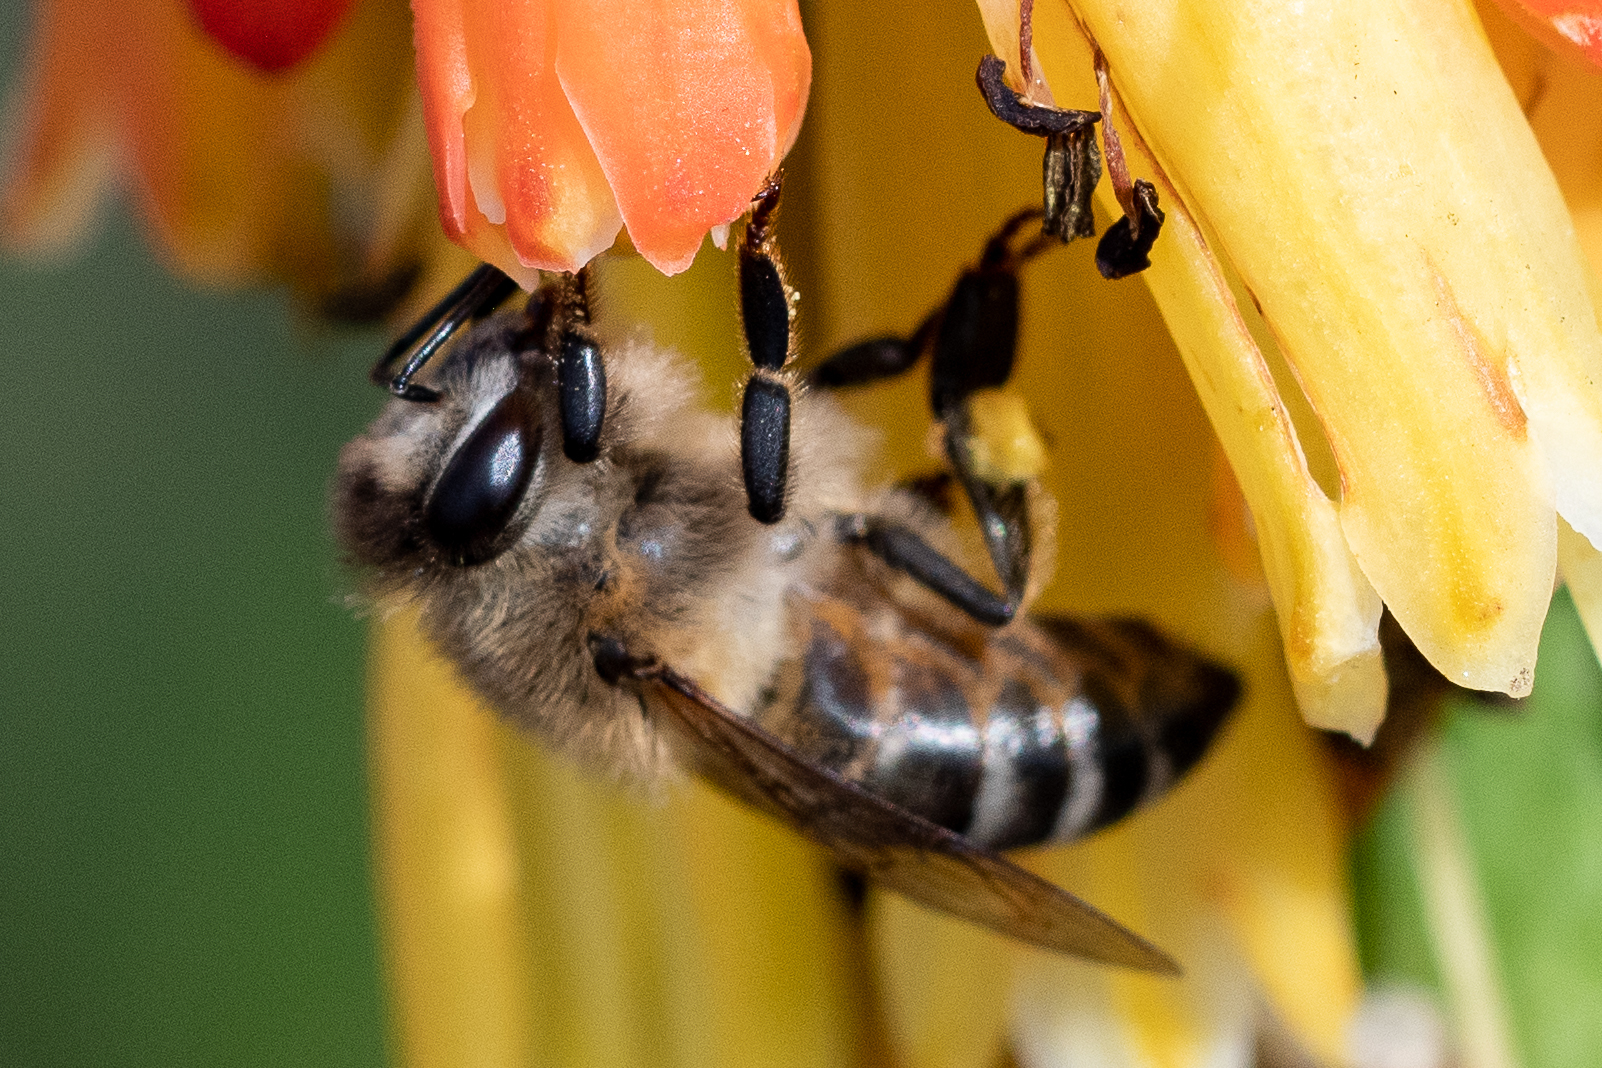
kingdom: Animalia
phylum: Arthropoda
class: Insecta
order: Hymenoptera
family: Apidae
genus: Apis
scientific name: Apis mellifera
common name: Honey bee
